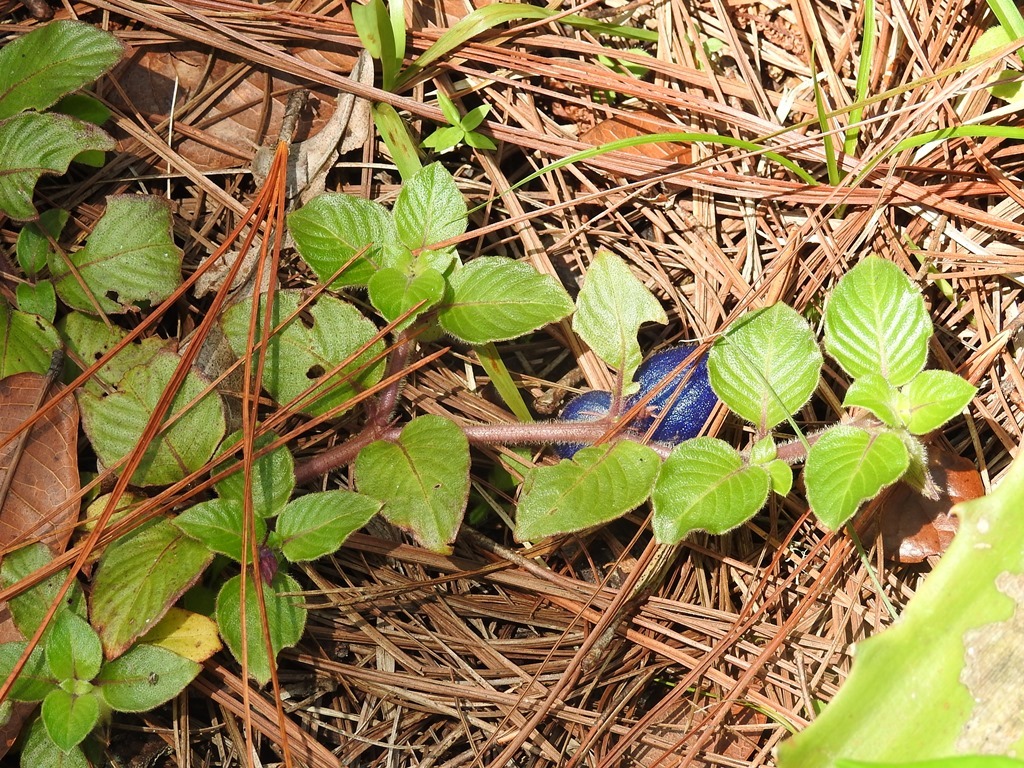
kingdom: Plantae
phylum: Tracheophyta
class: Magnoliopsida
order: Gentianales
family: Rubiaceae
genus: Coccocypselum
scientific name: Coccocypselum hirsutum
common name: Yerba de guava
